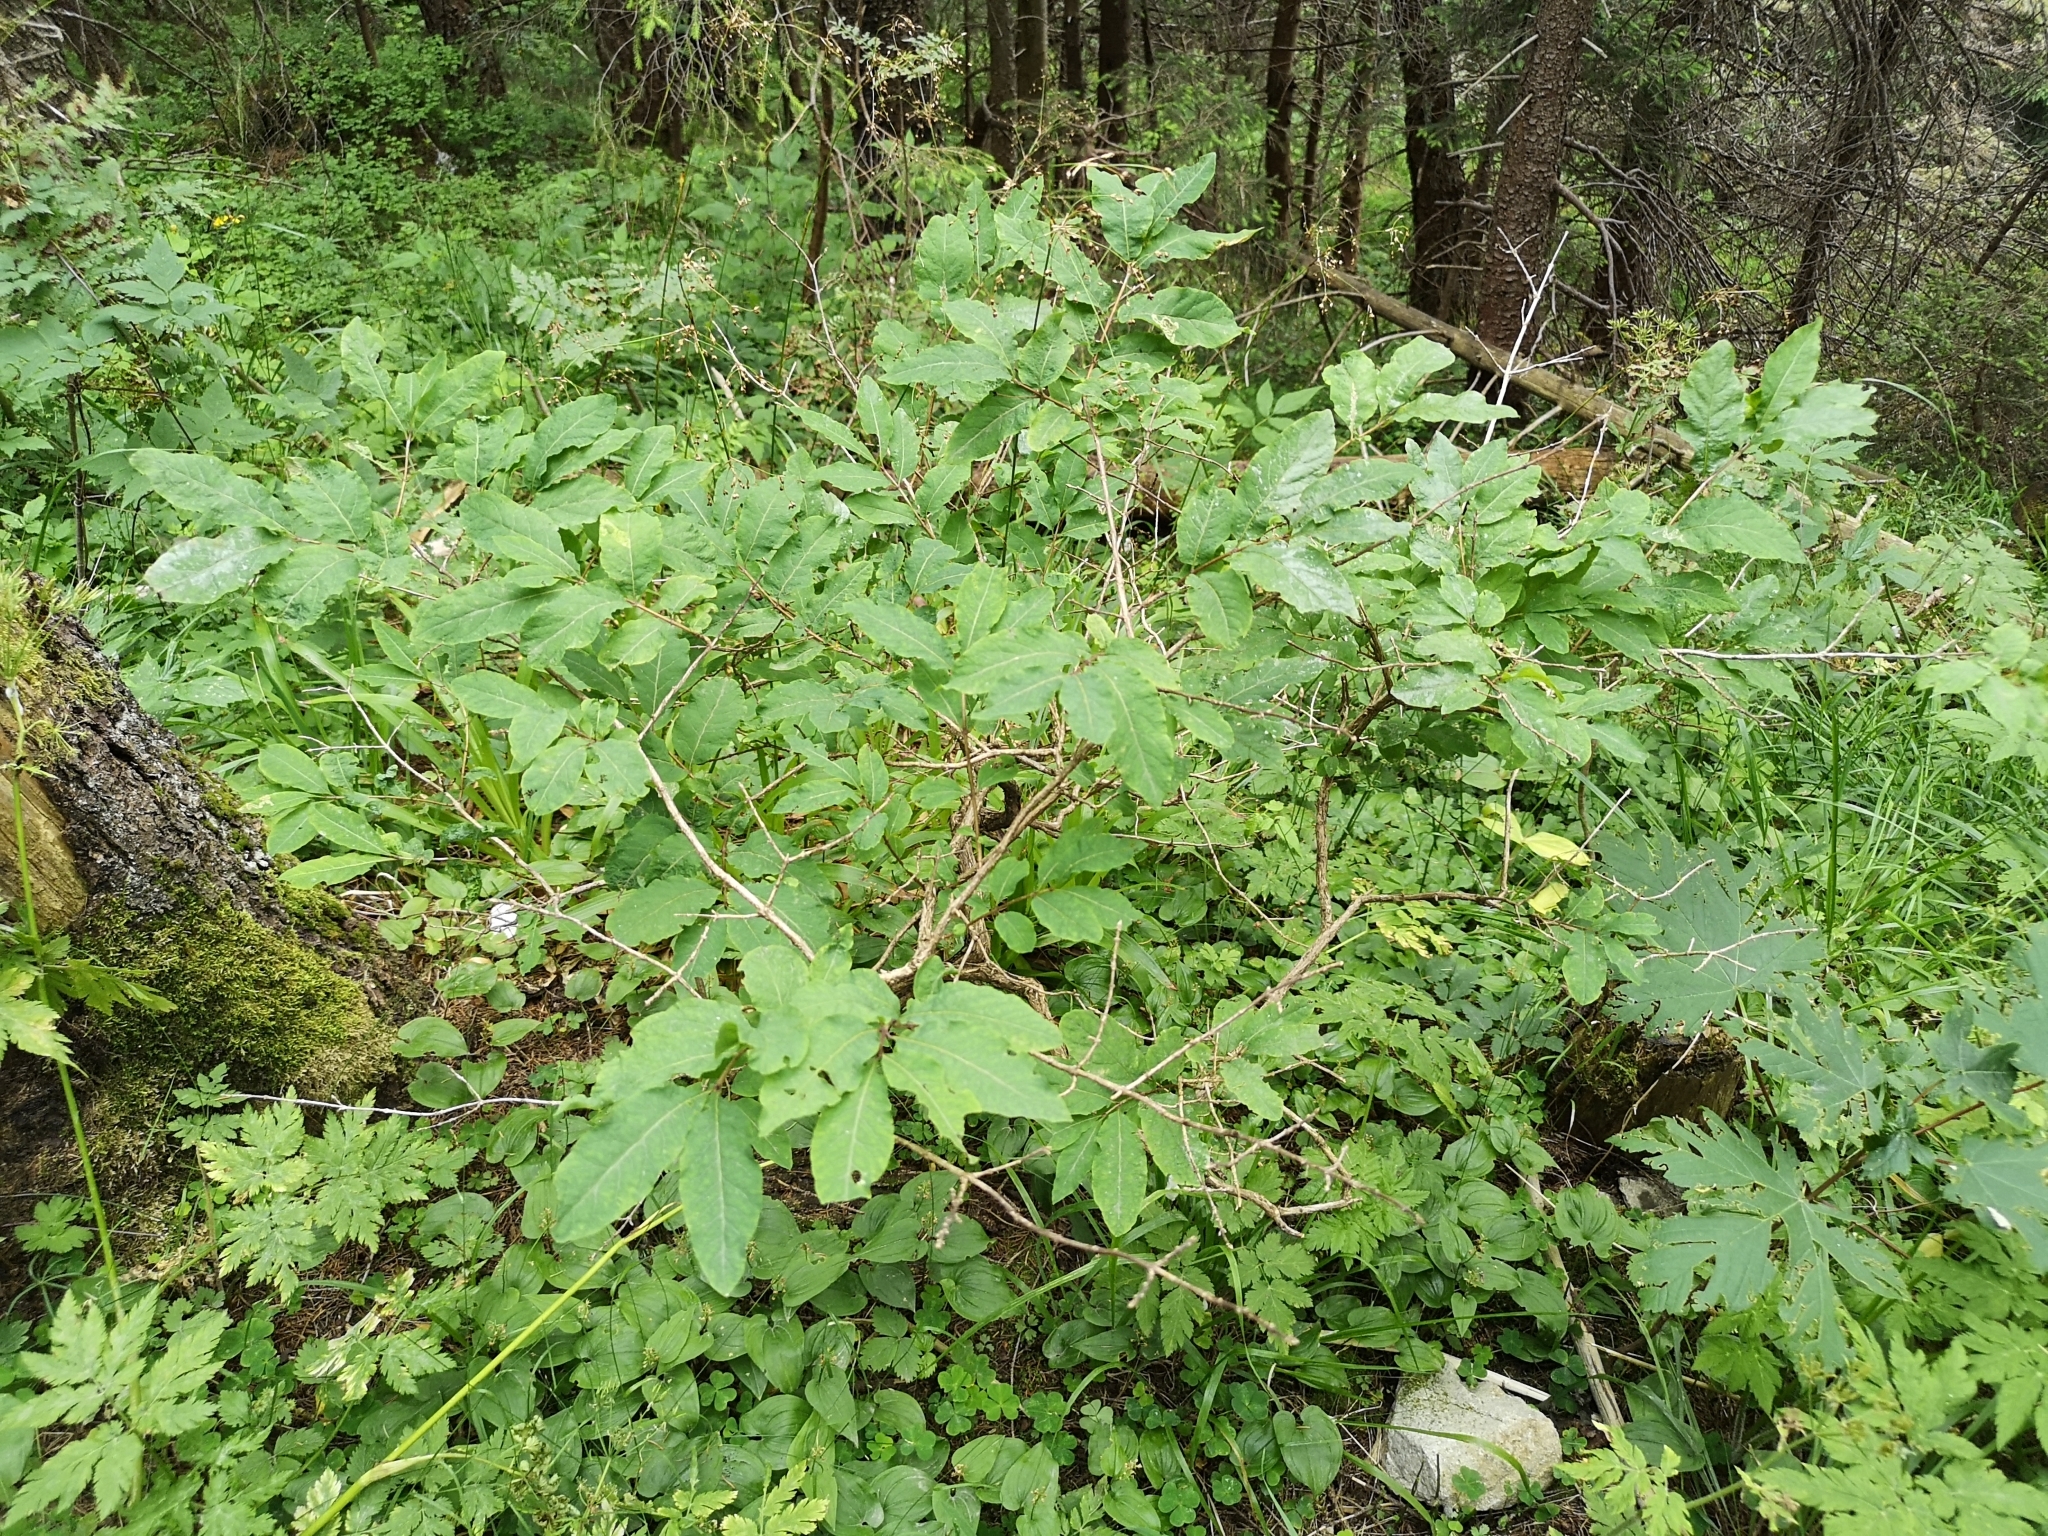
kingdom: Plantae
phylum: Tracheophyta
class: Magnoliopsida
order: Dipsacales
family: Caprifoliaceae
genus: Lonicera
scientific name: Lonicera nigra
